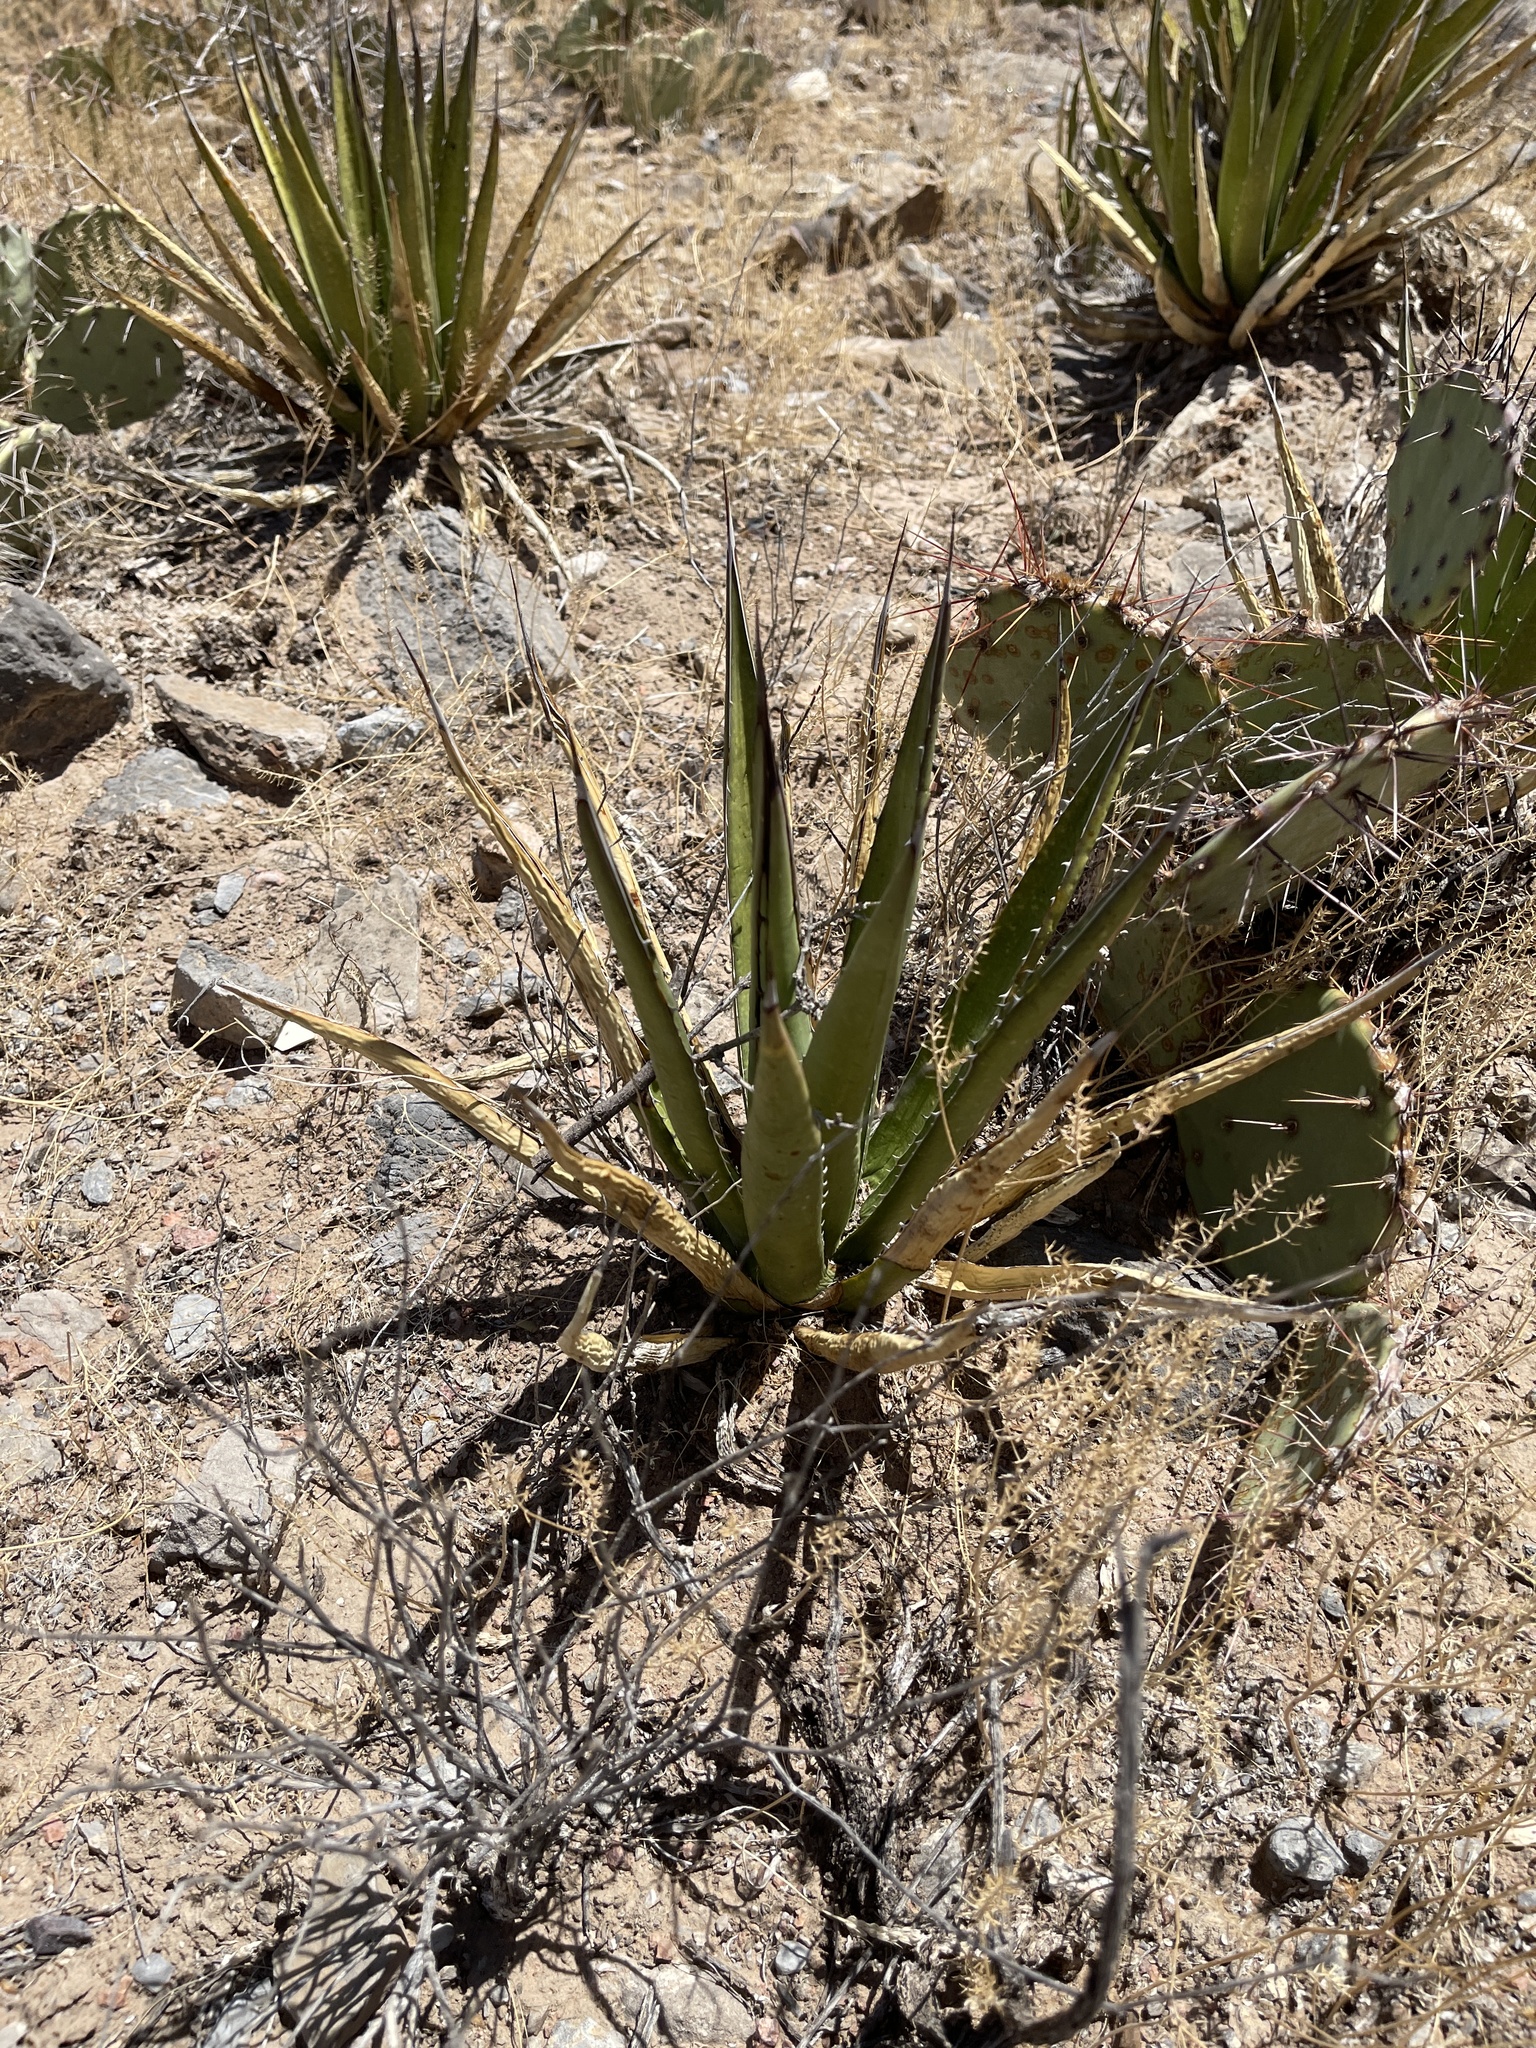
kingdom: Plantae
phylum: Tracheophyta
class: Liliopsida
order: Asparagales
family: Asparagaceae
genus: Agave
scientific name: Agave lechuguilla
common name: Lecheguilla agave
